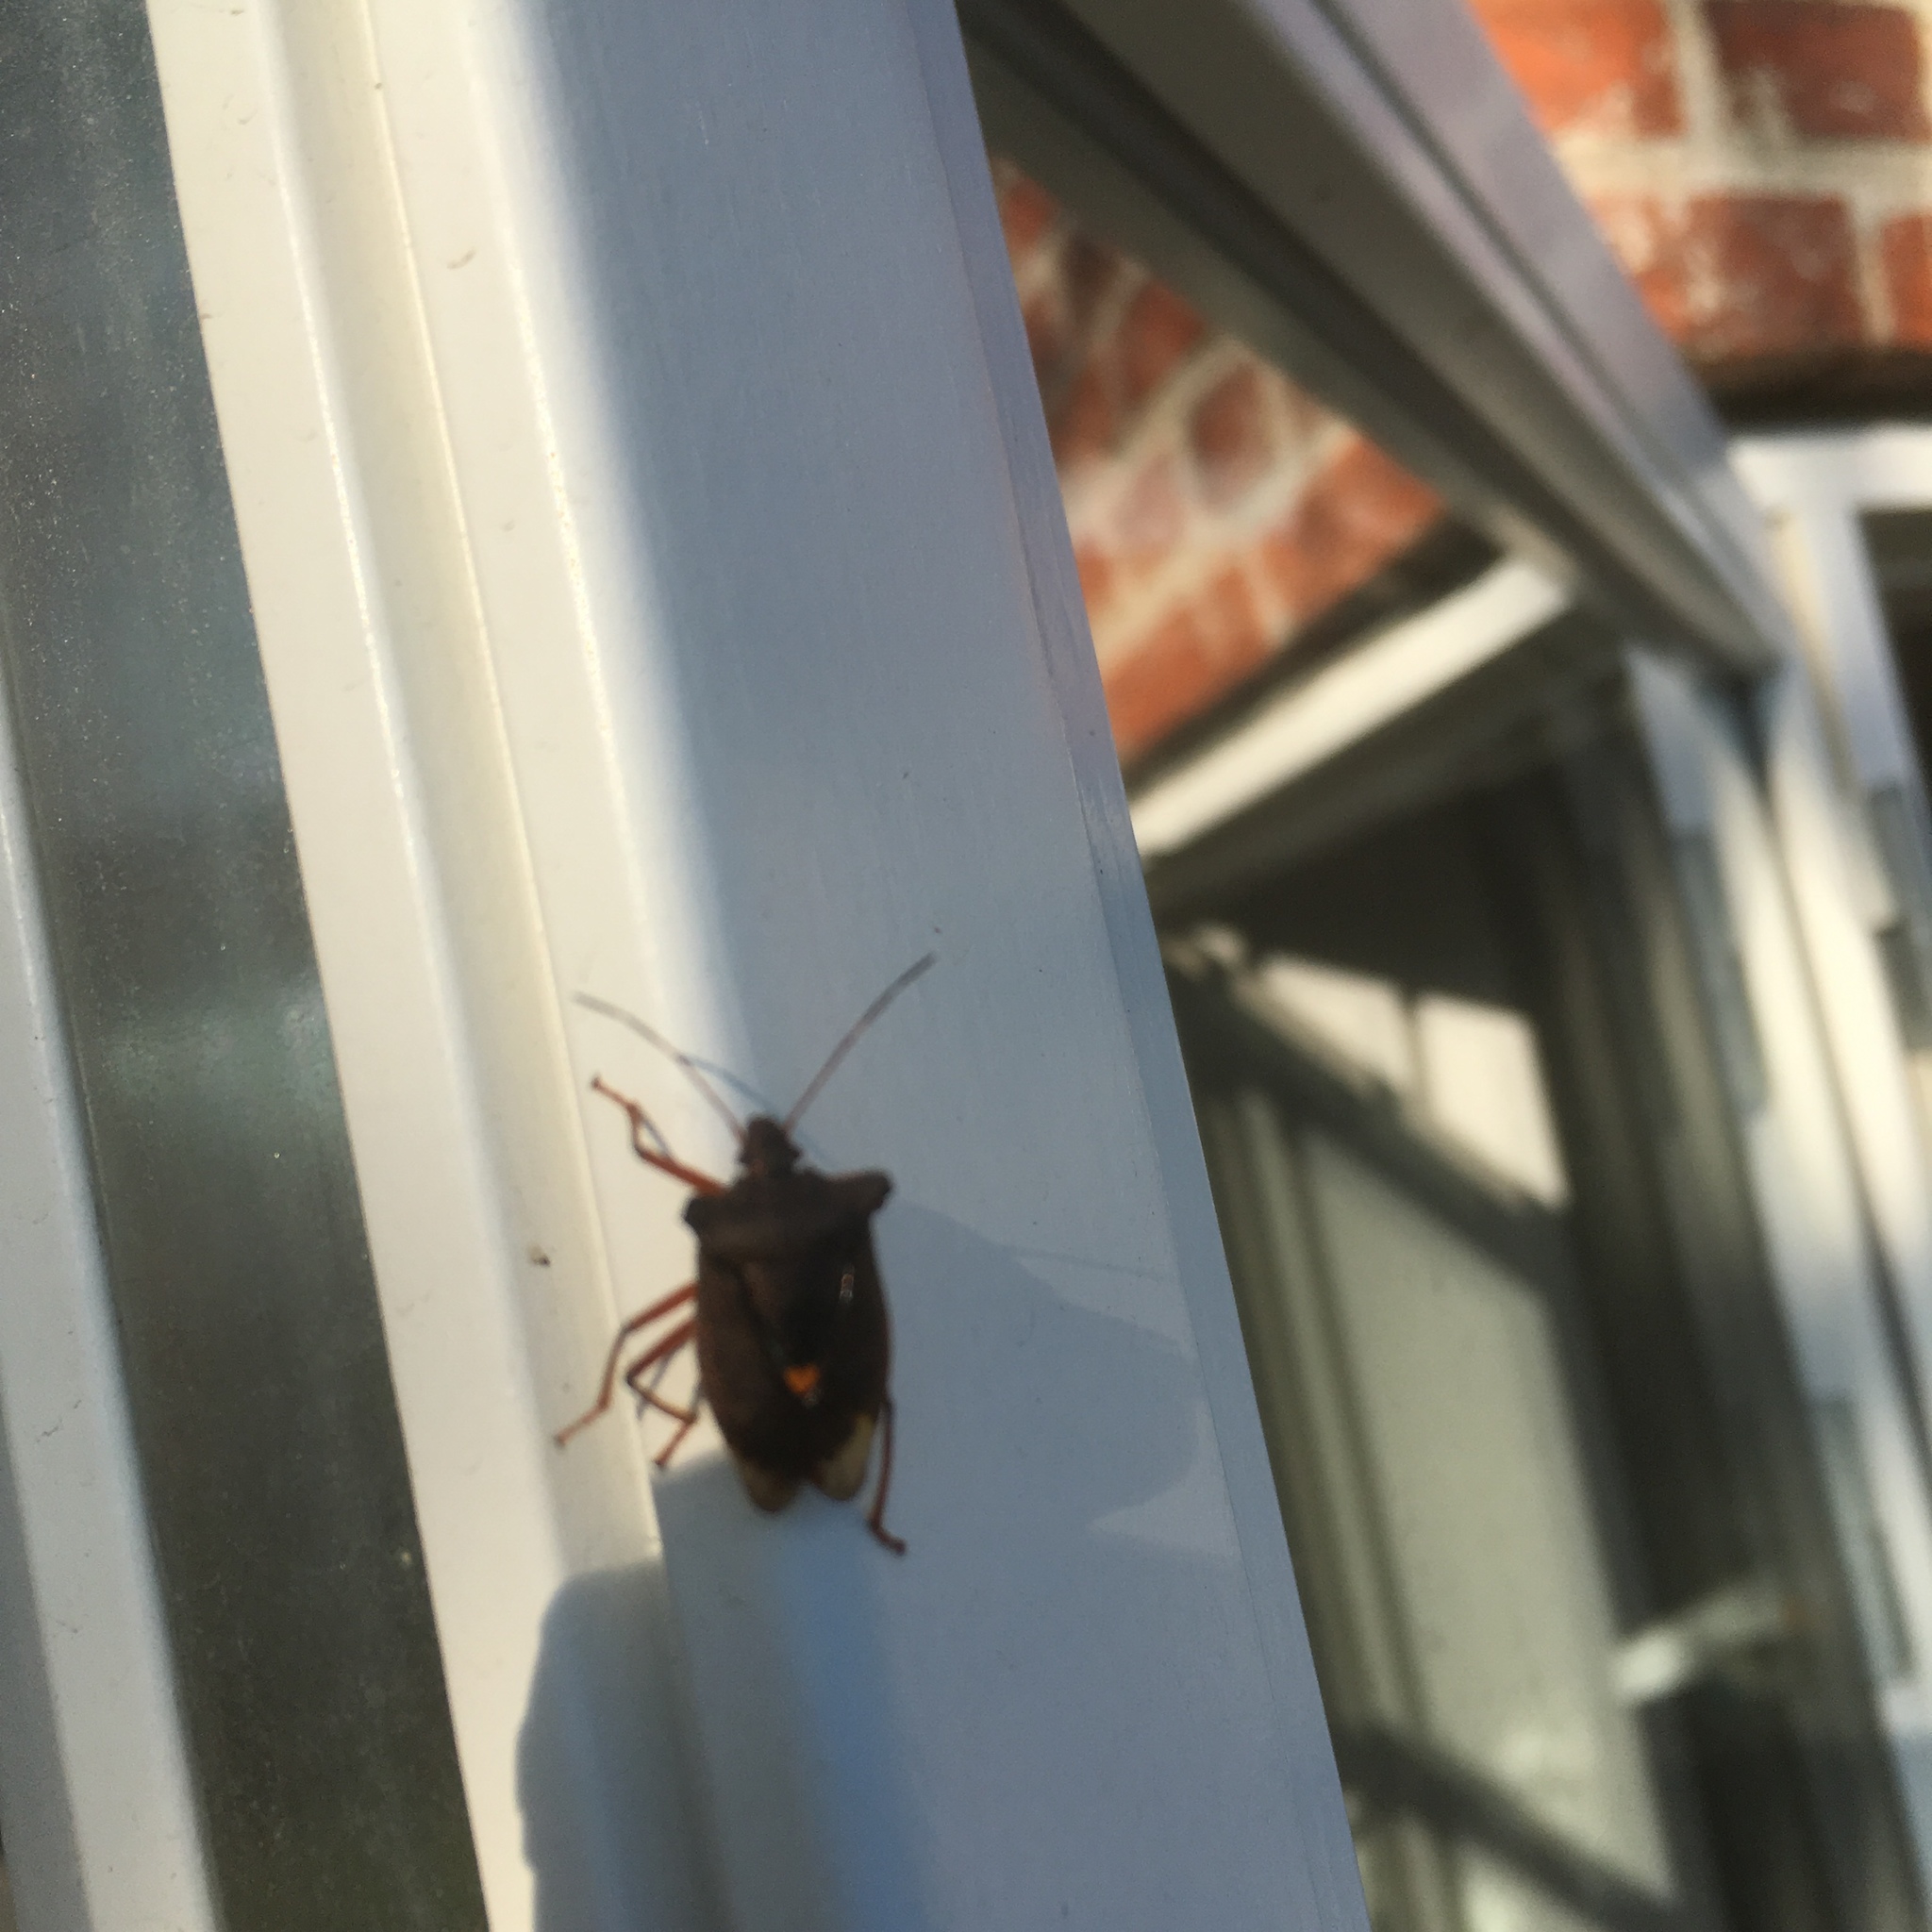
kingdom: Animalia
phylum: Arthropoda
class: Insecta
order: Hemiptera
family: Pentatomidae
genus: Pentatoma
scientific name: Pentatoma rufipes
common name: Forest bug
